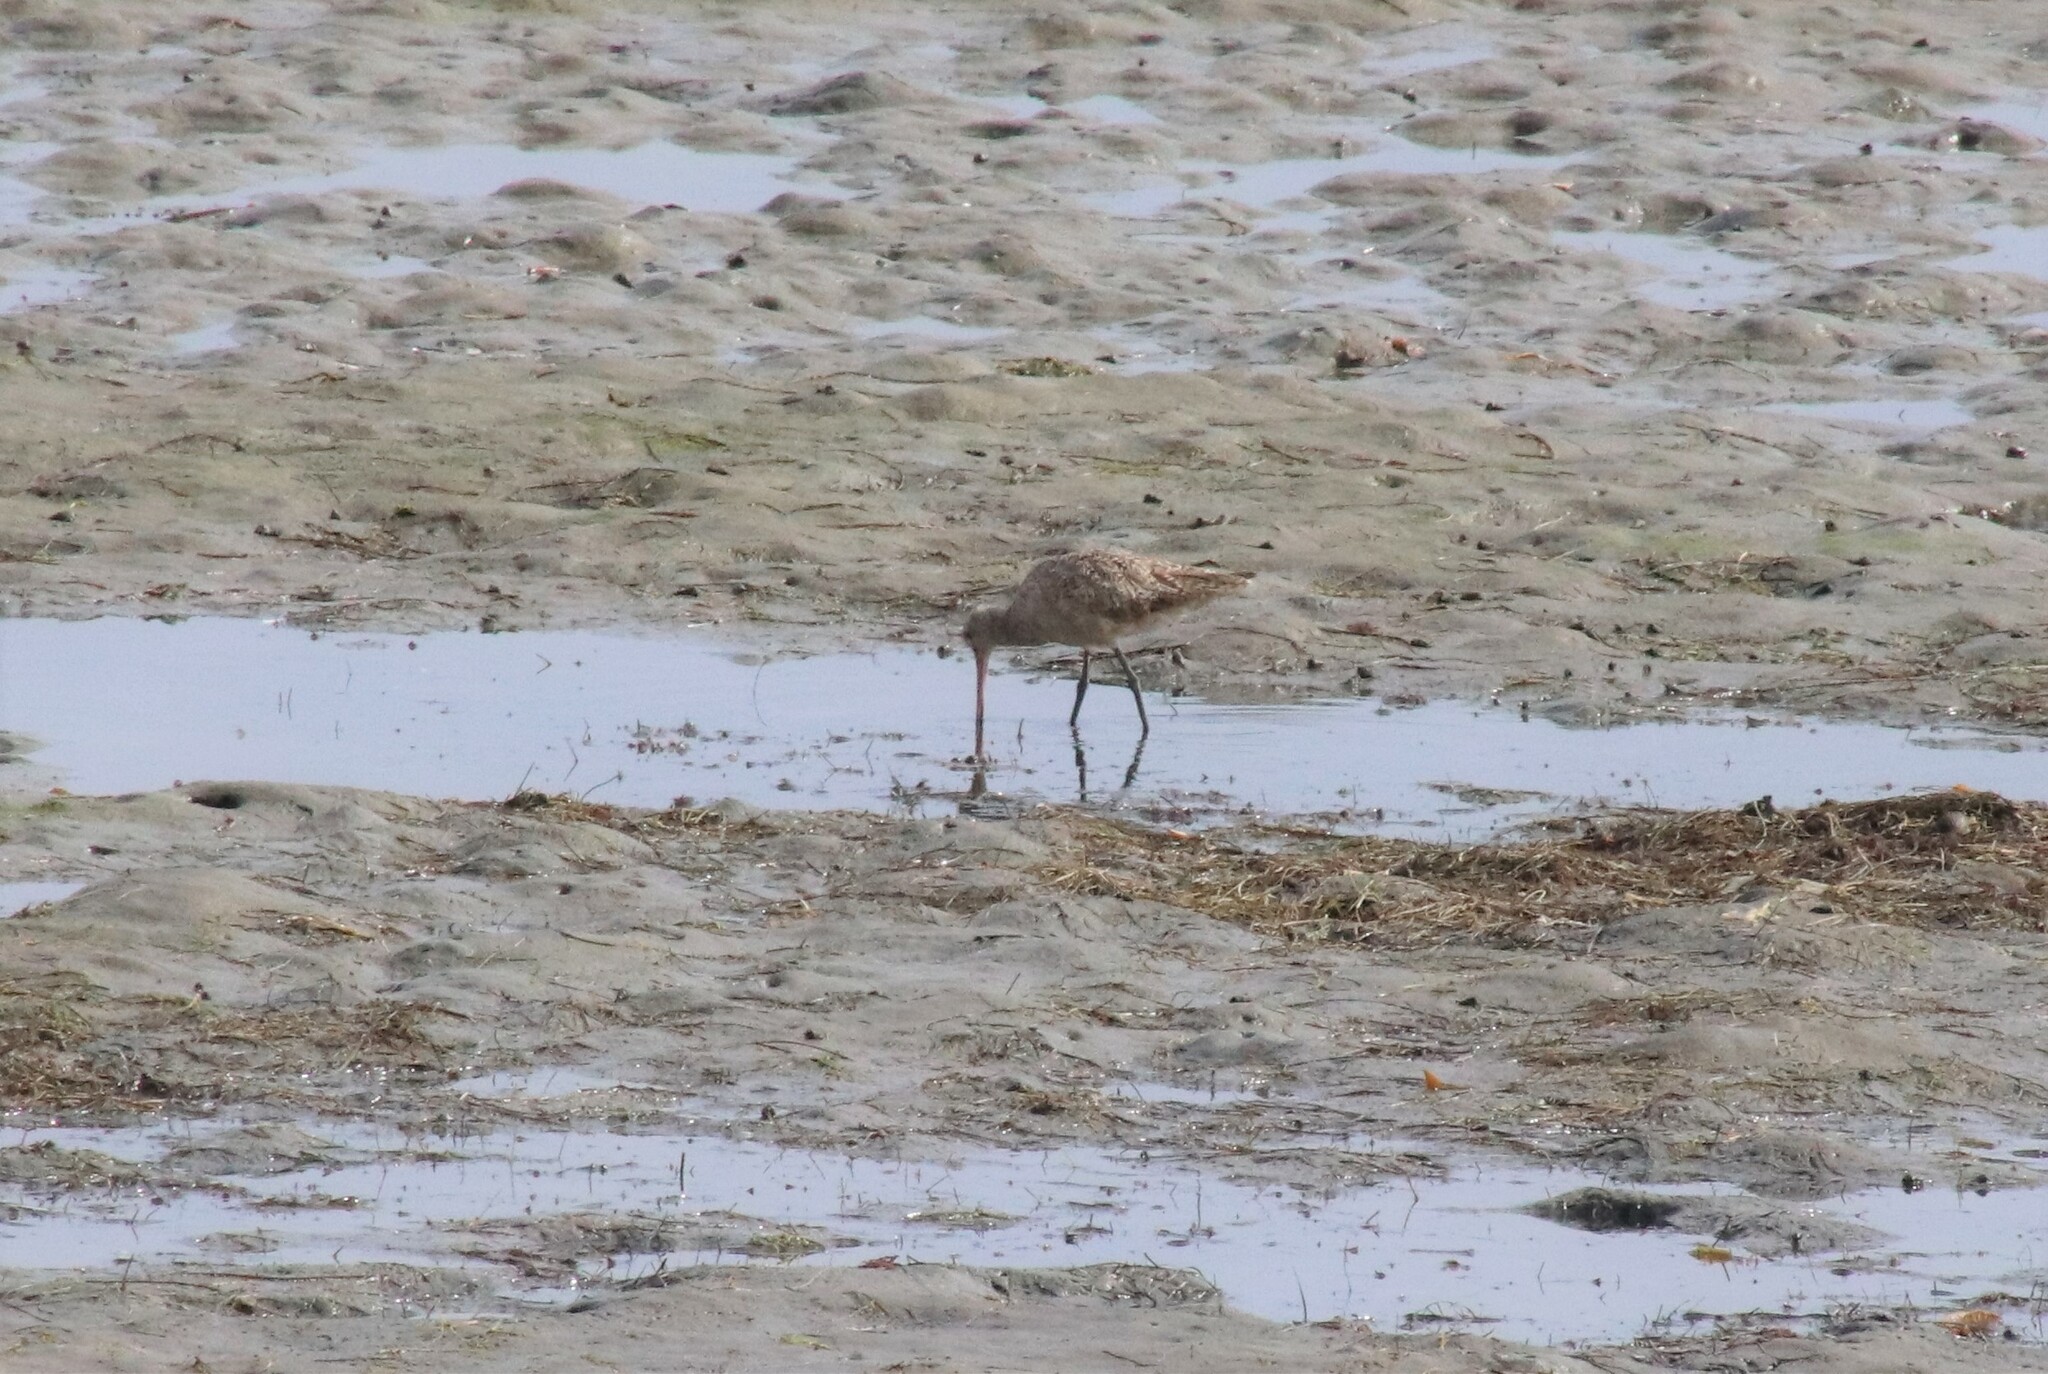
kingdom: Animalia
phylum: Chordata
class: Aves
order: Charadriiformes
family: Scolopacidae
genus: Limosa
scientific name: Limosa fedoa
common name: Marbled godwit
